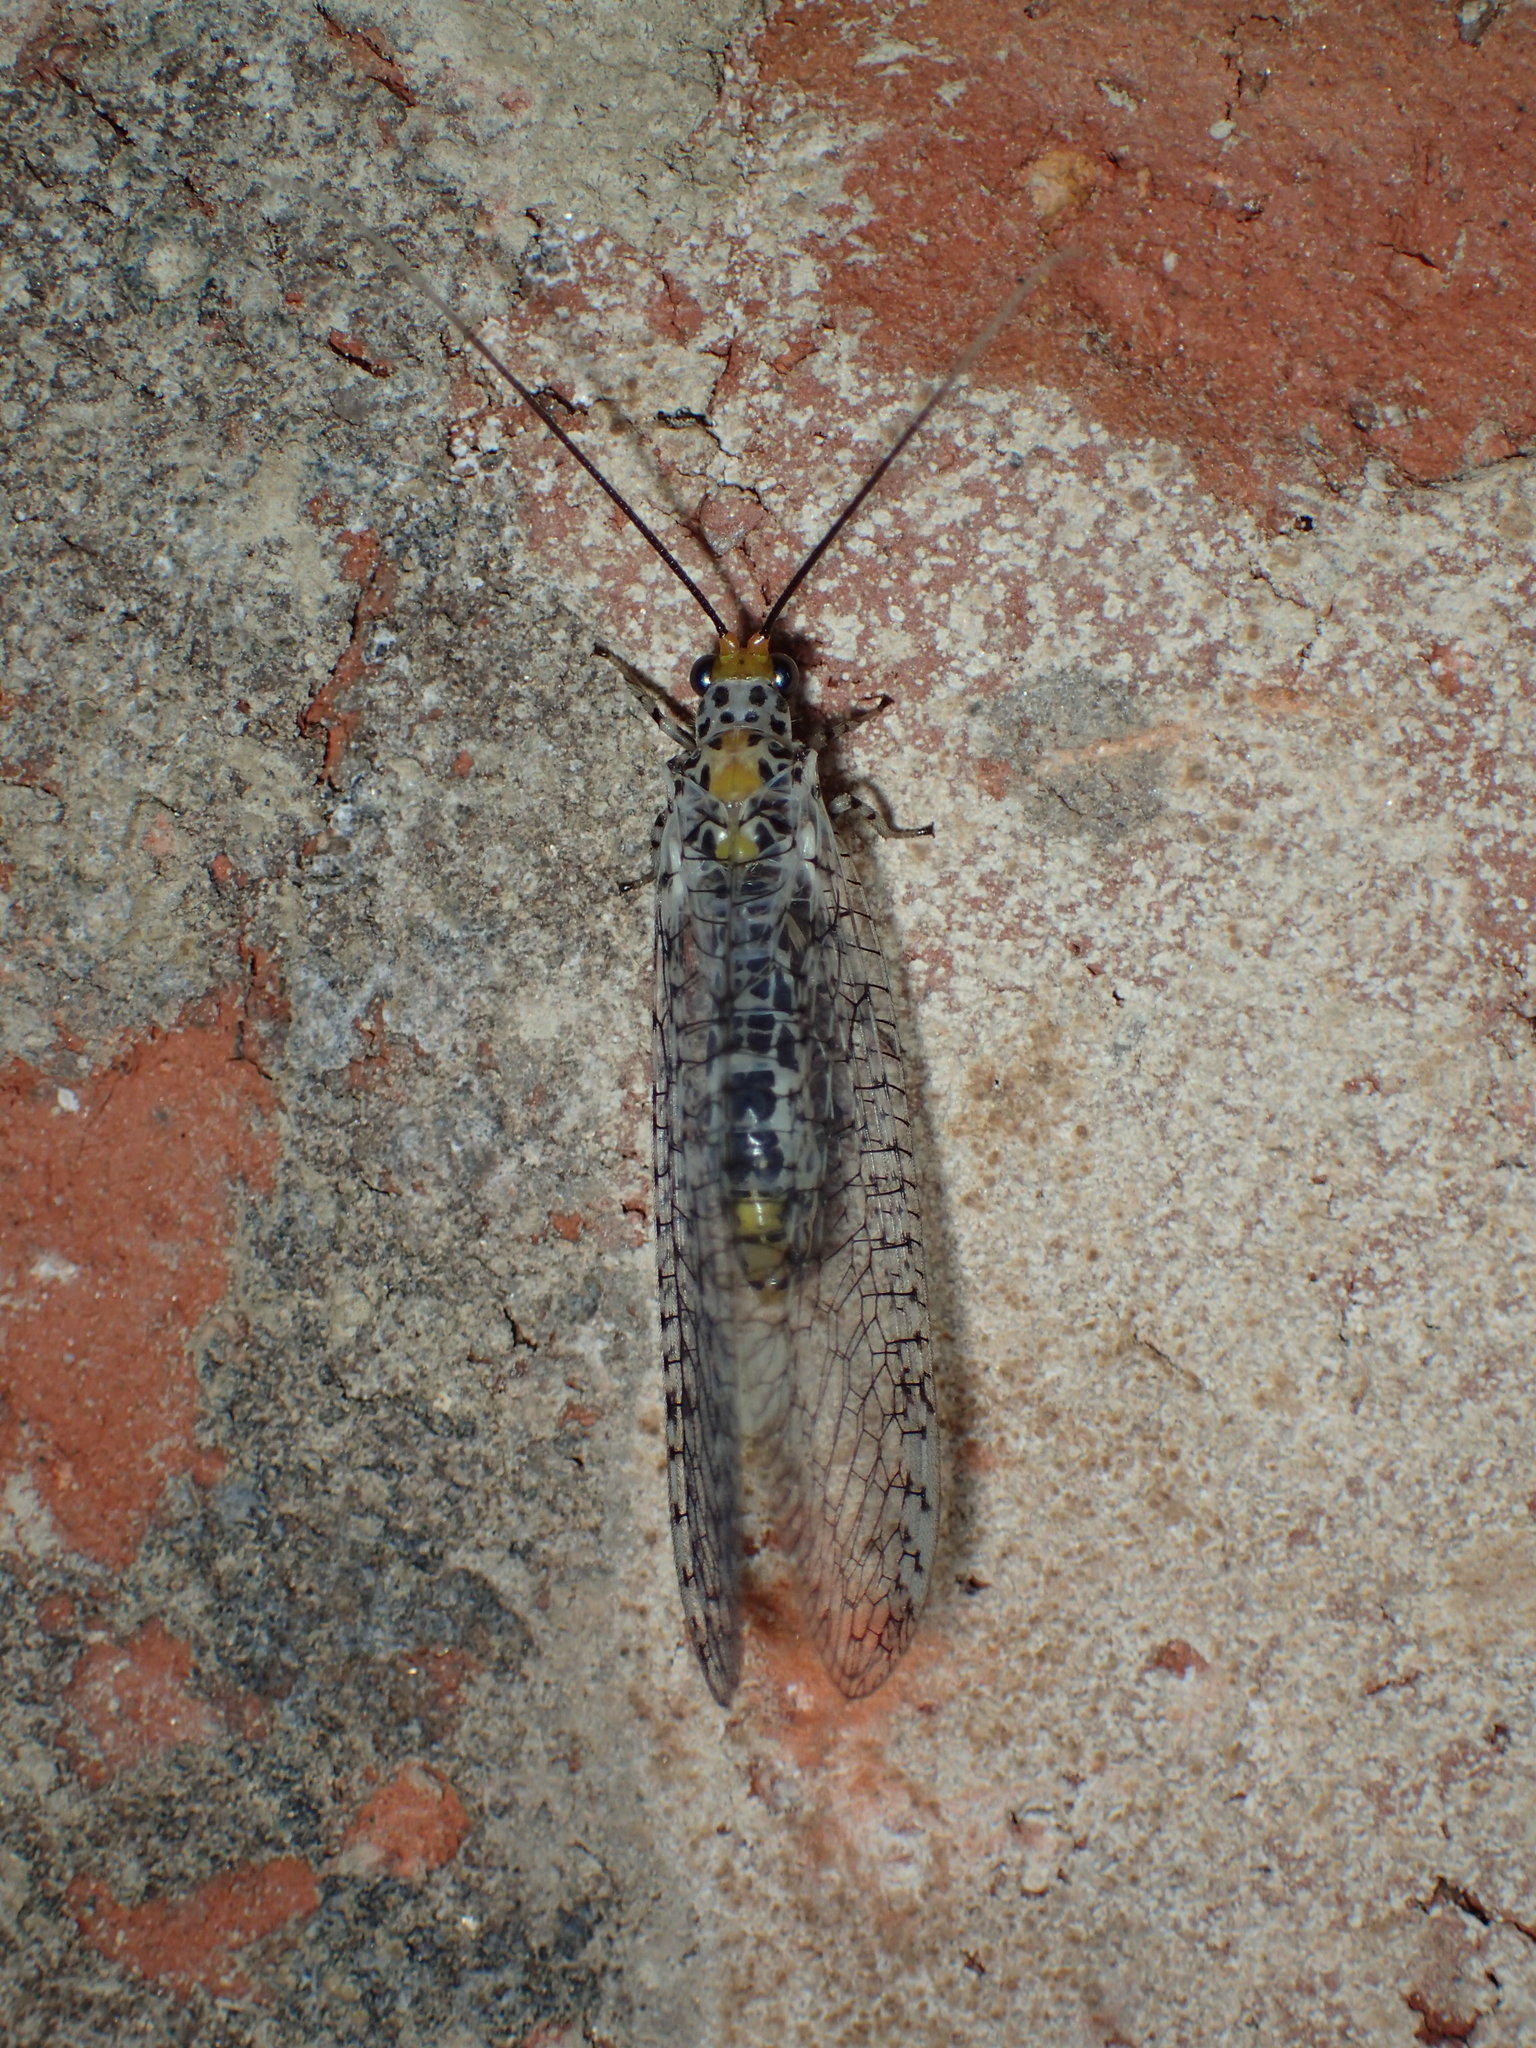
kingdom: Animalia
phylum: Arthropoda
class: Insecta
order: Neuroptera
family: Chrysopidae
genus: Abachrysa
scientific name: Abachrysa eureka
